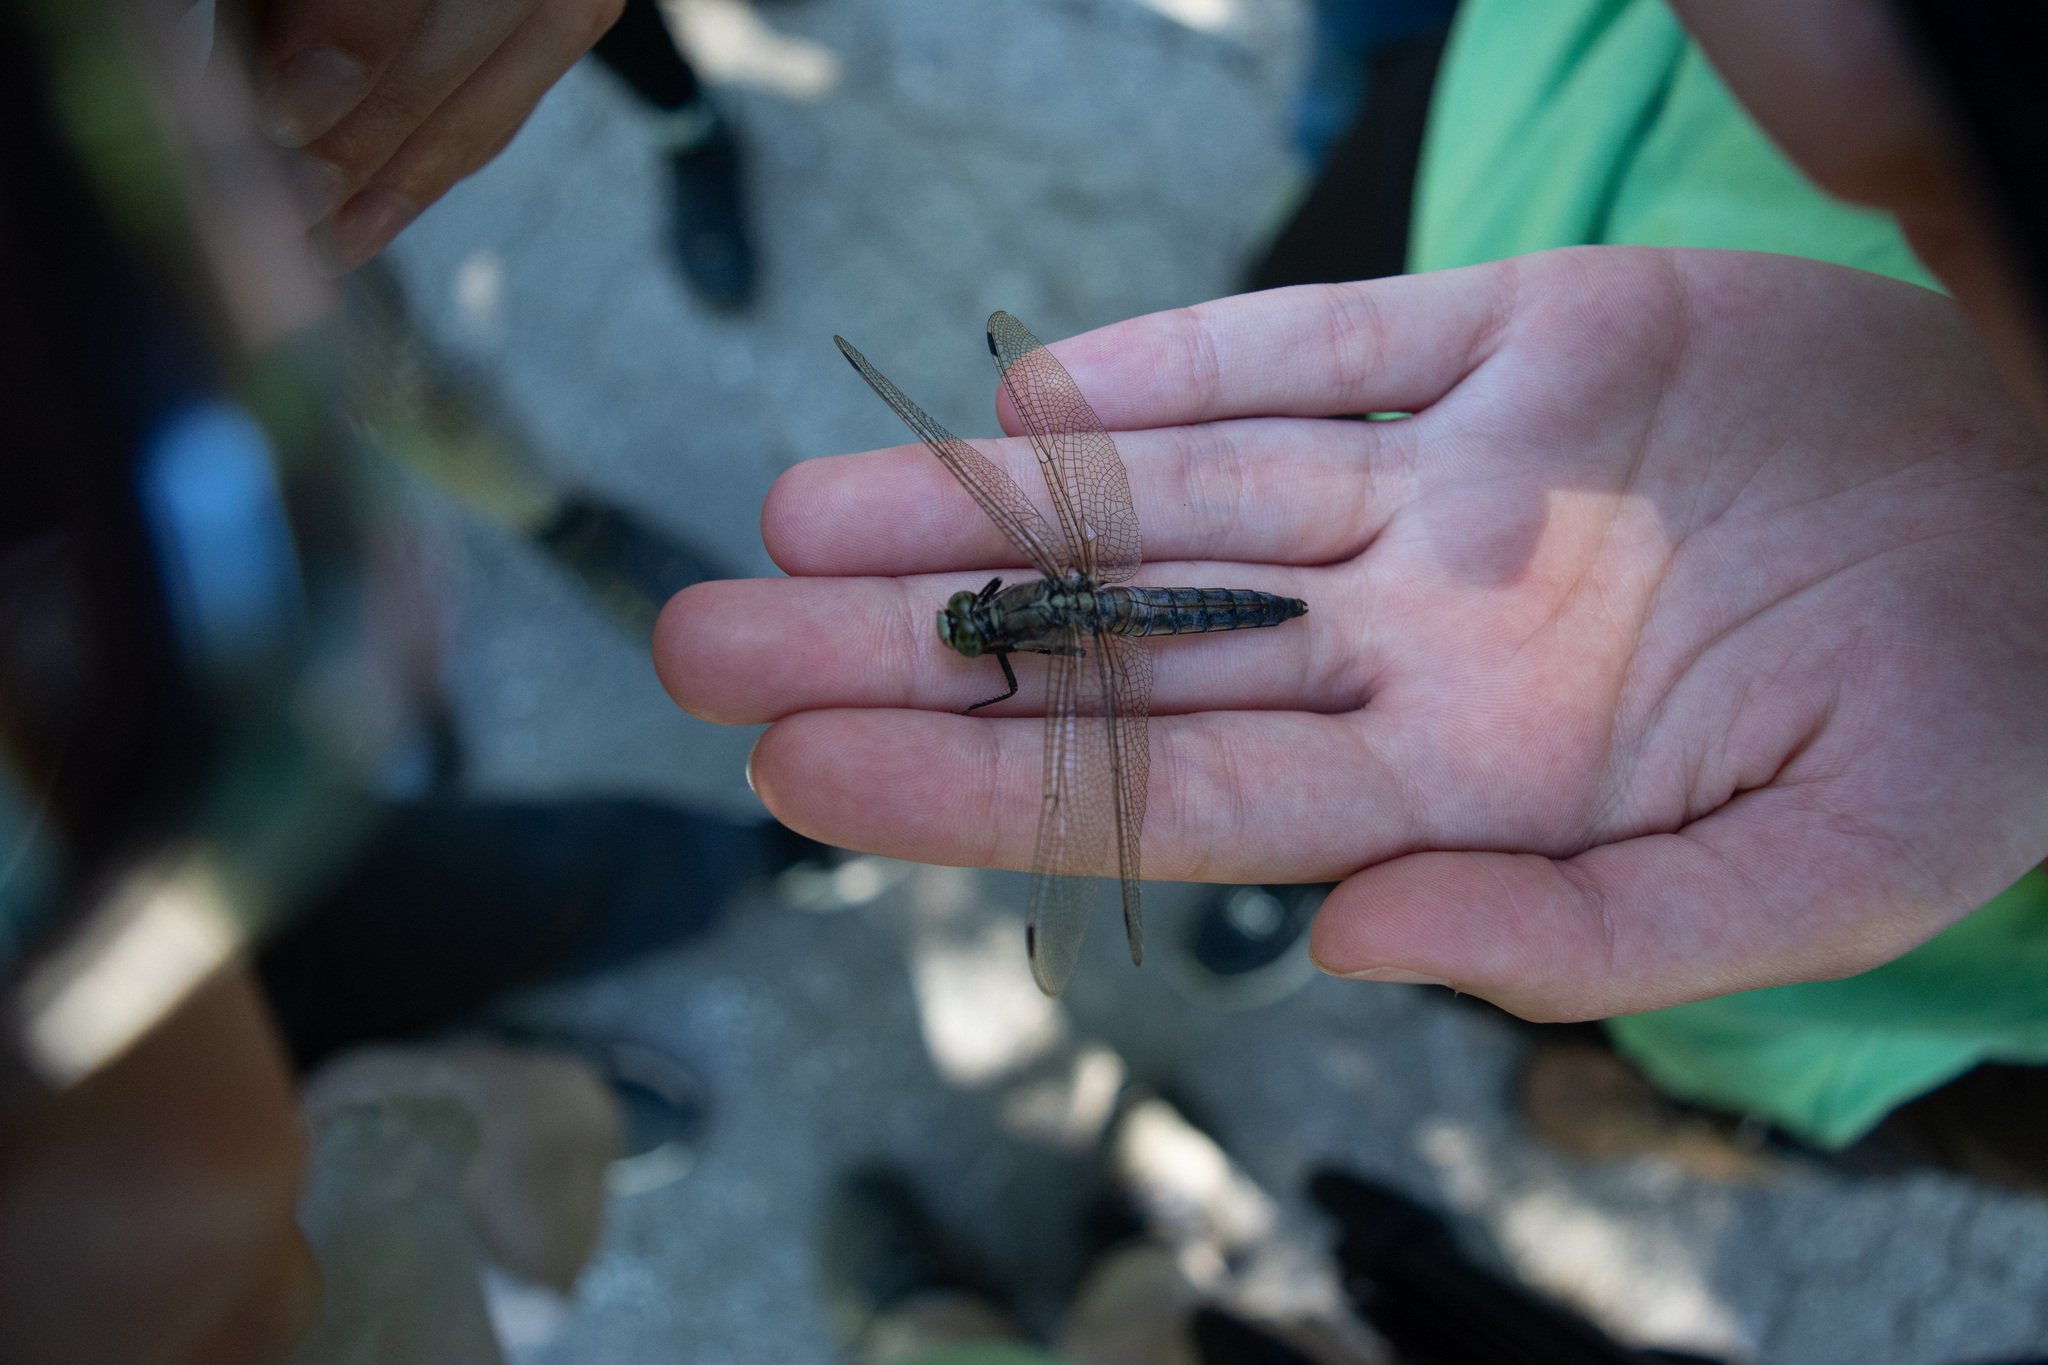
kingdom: Animalia
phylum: Arthropoda
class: Insecta
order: Odonata
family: Libellulidae
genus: Orthetrum
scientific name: Orthetrum cancellatum
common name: Black-tailed skimmer
